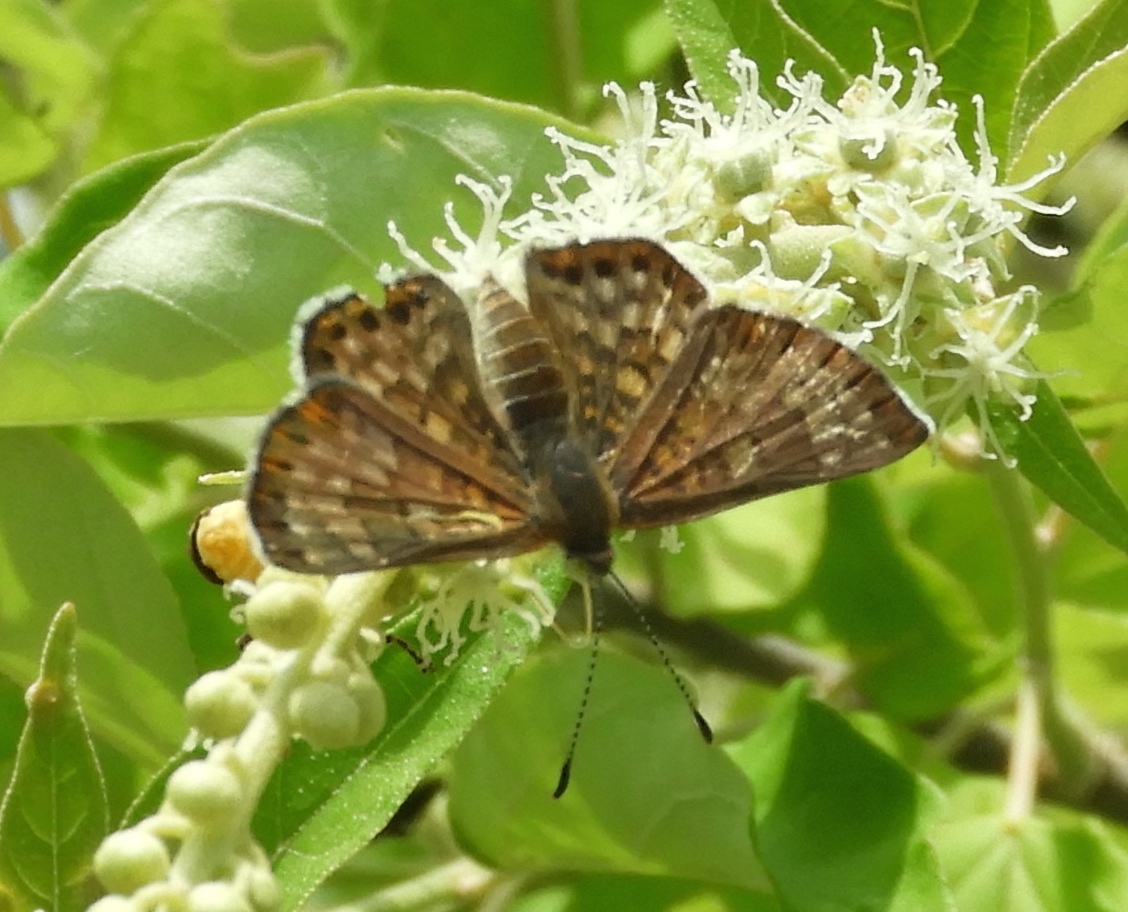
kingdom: Animalia
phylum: Arthropoda
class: Insecta
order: Lepidoptera
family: Riodinidae
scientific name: Riodinidae
